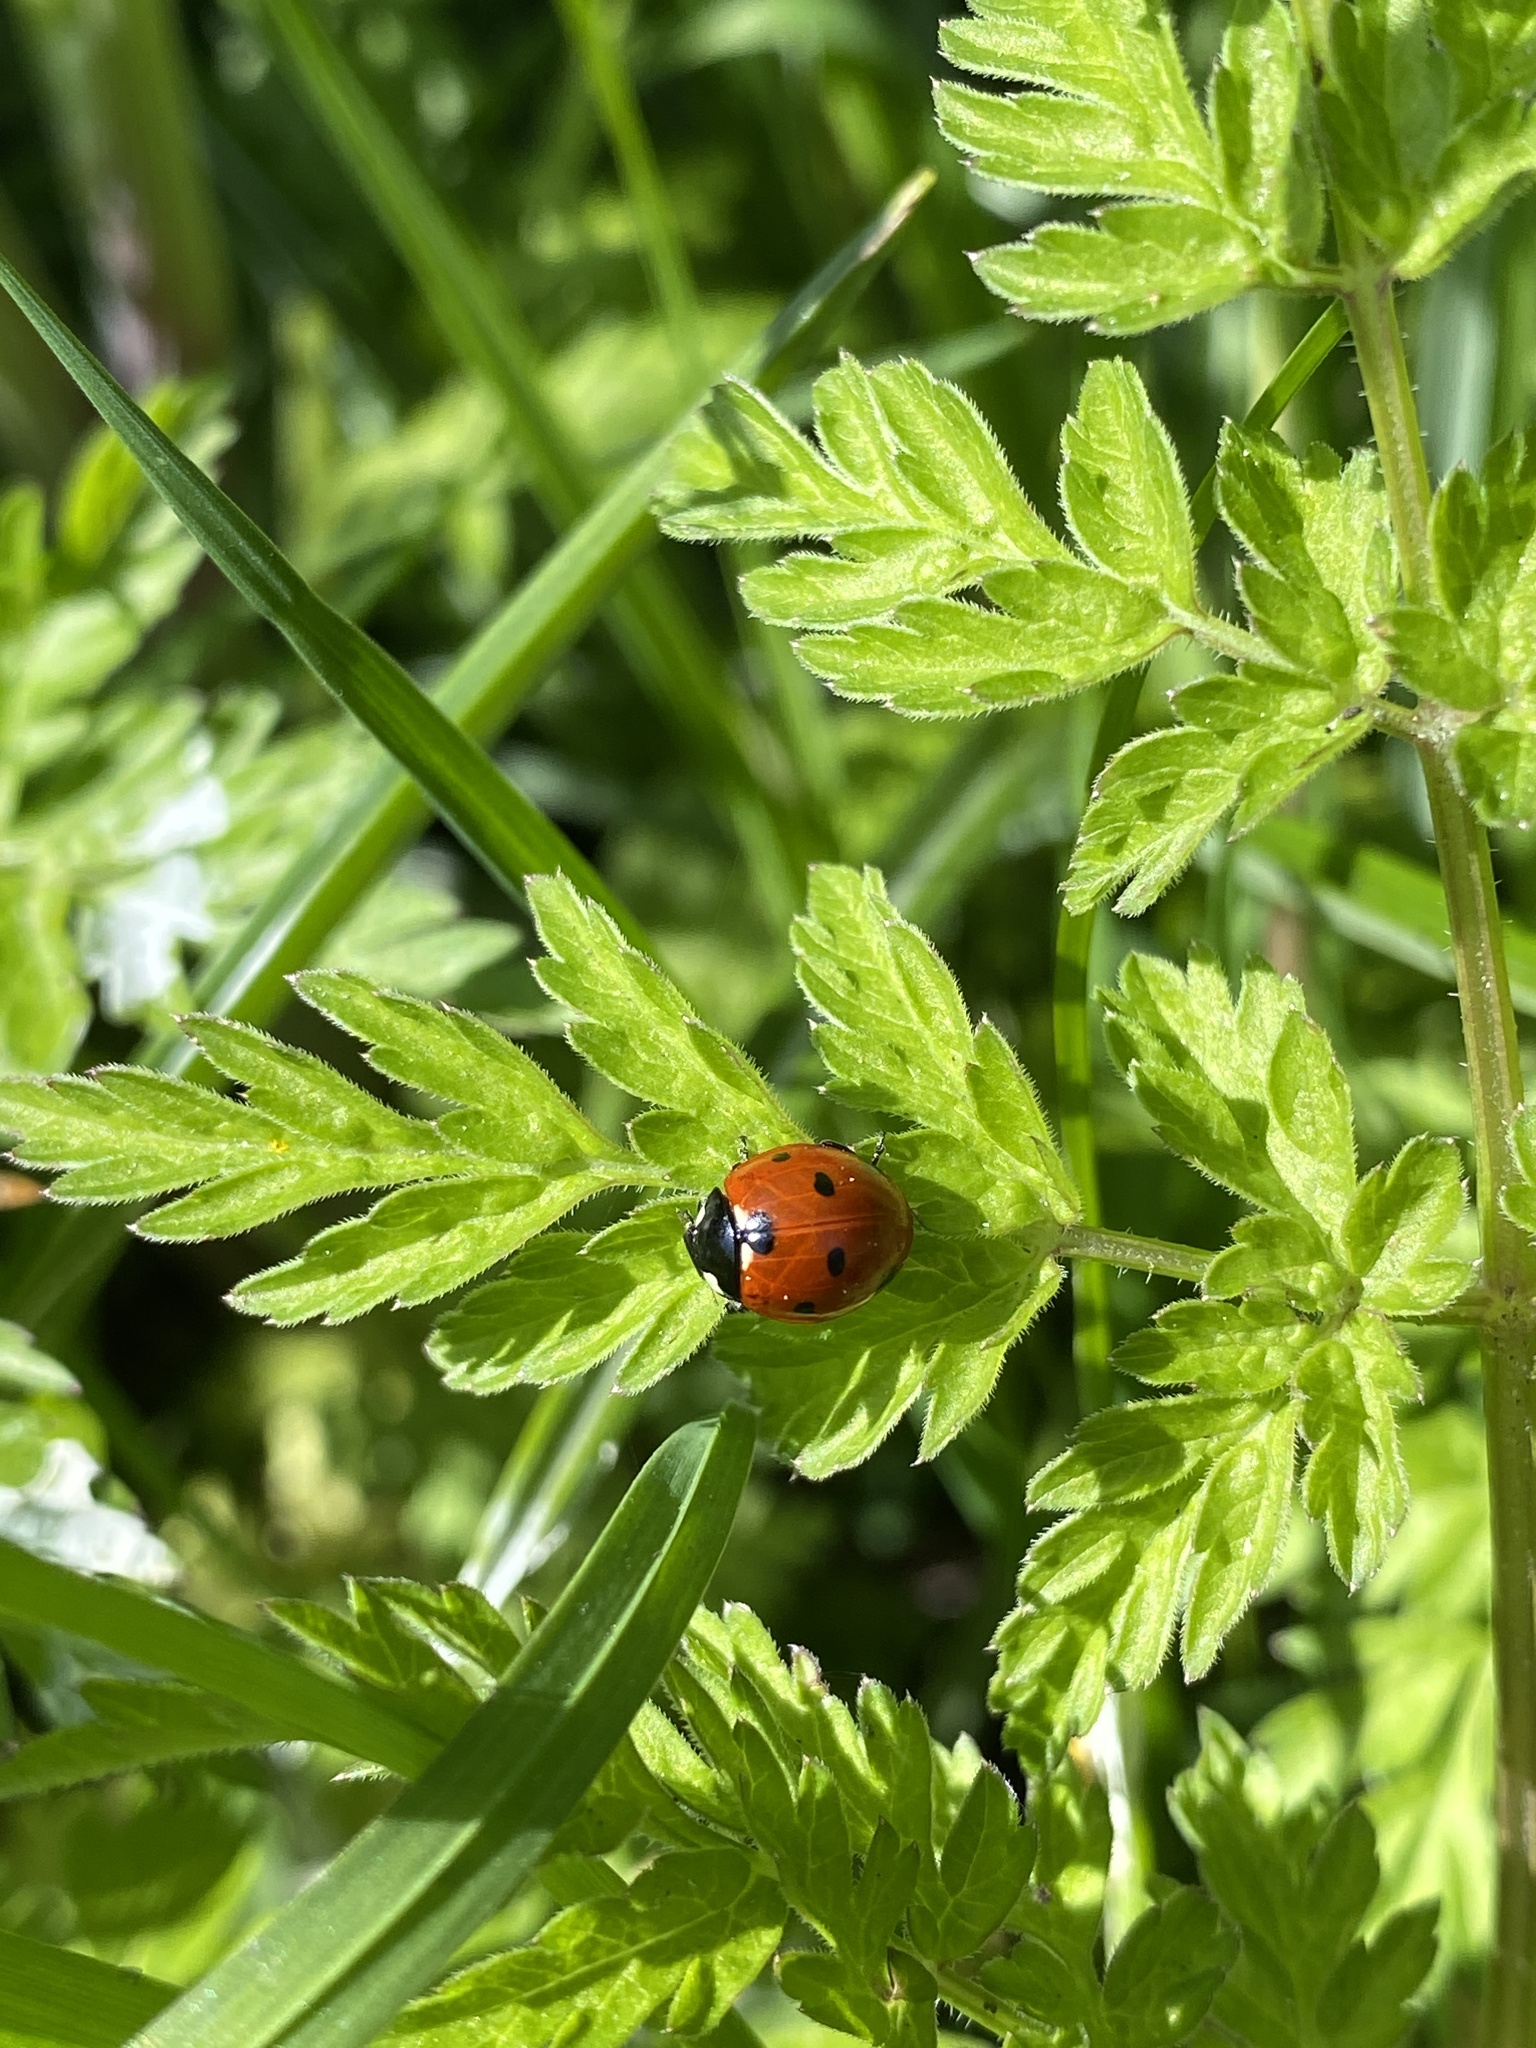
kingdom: Animalia
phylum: Arthropoda
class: Insecta
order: Coleoptera
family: Coccinellidae
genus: Coccinella
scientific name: Coccinella septempunctata
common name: Sevenspotted lady beetle
